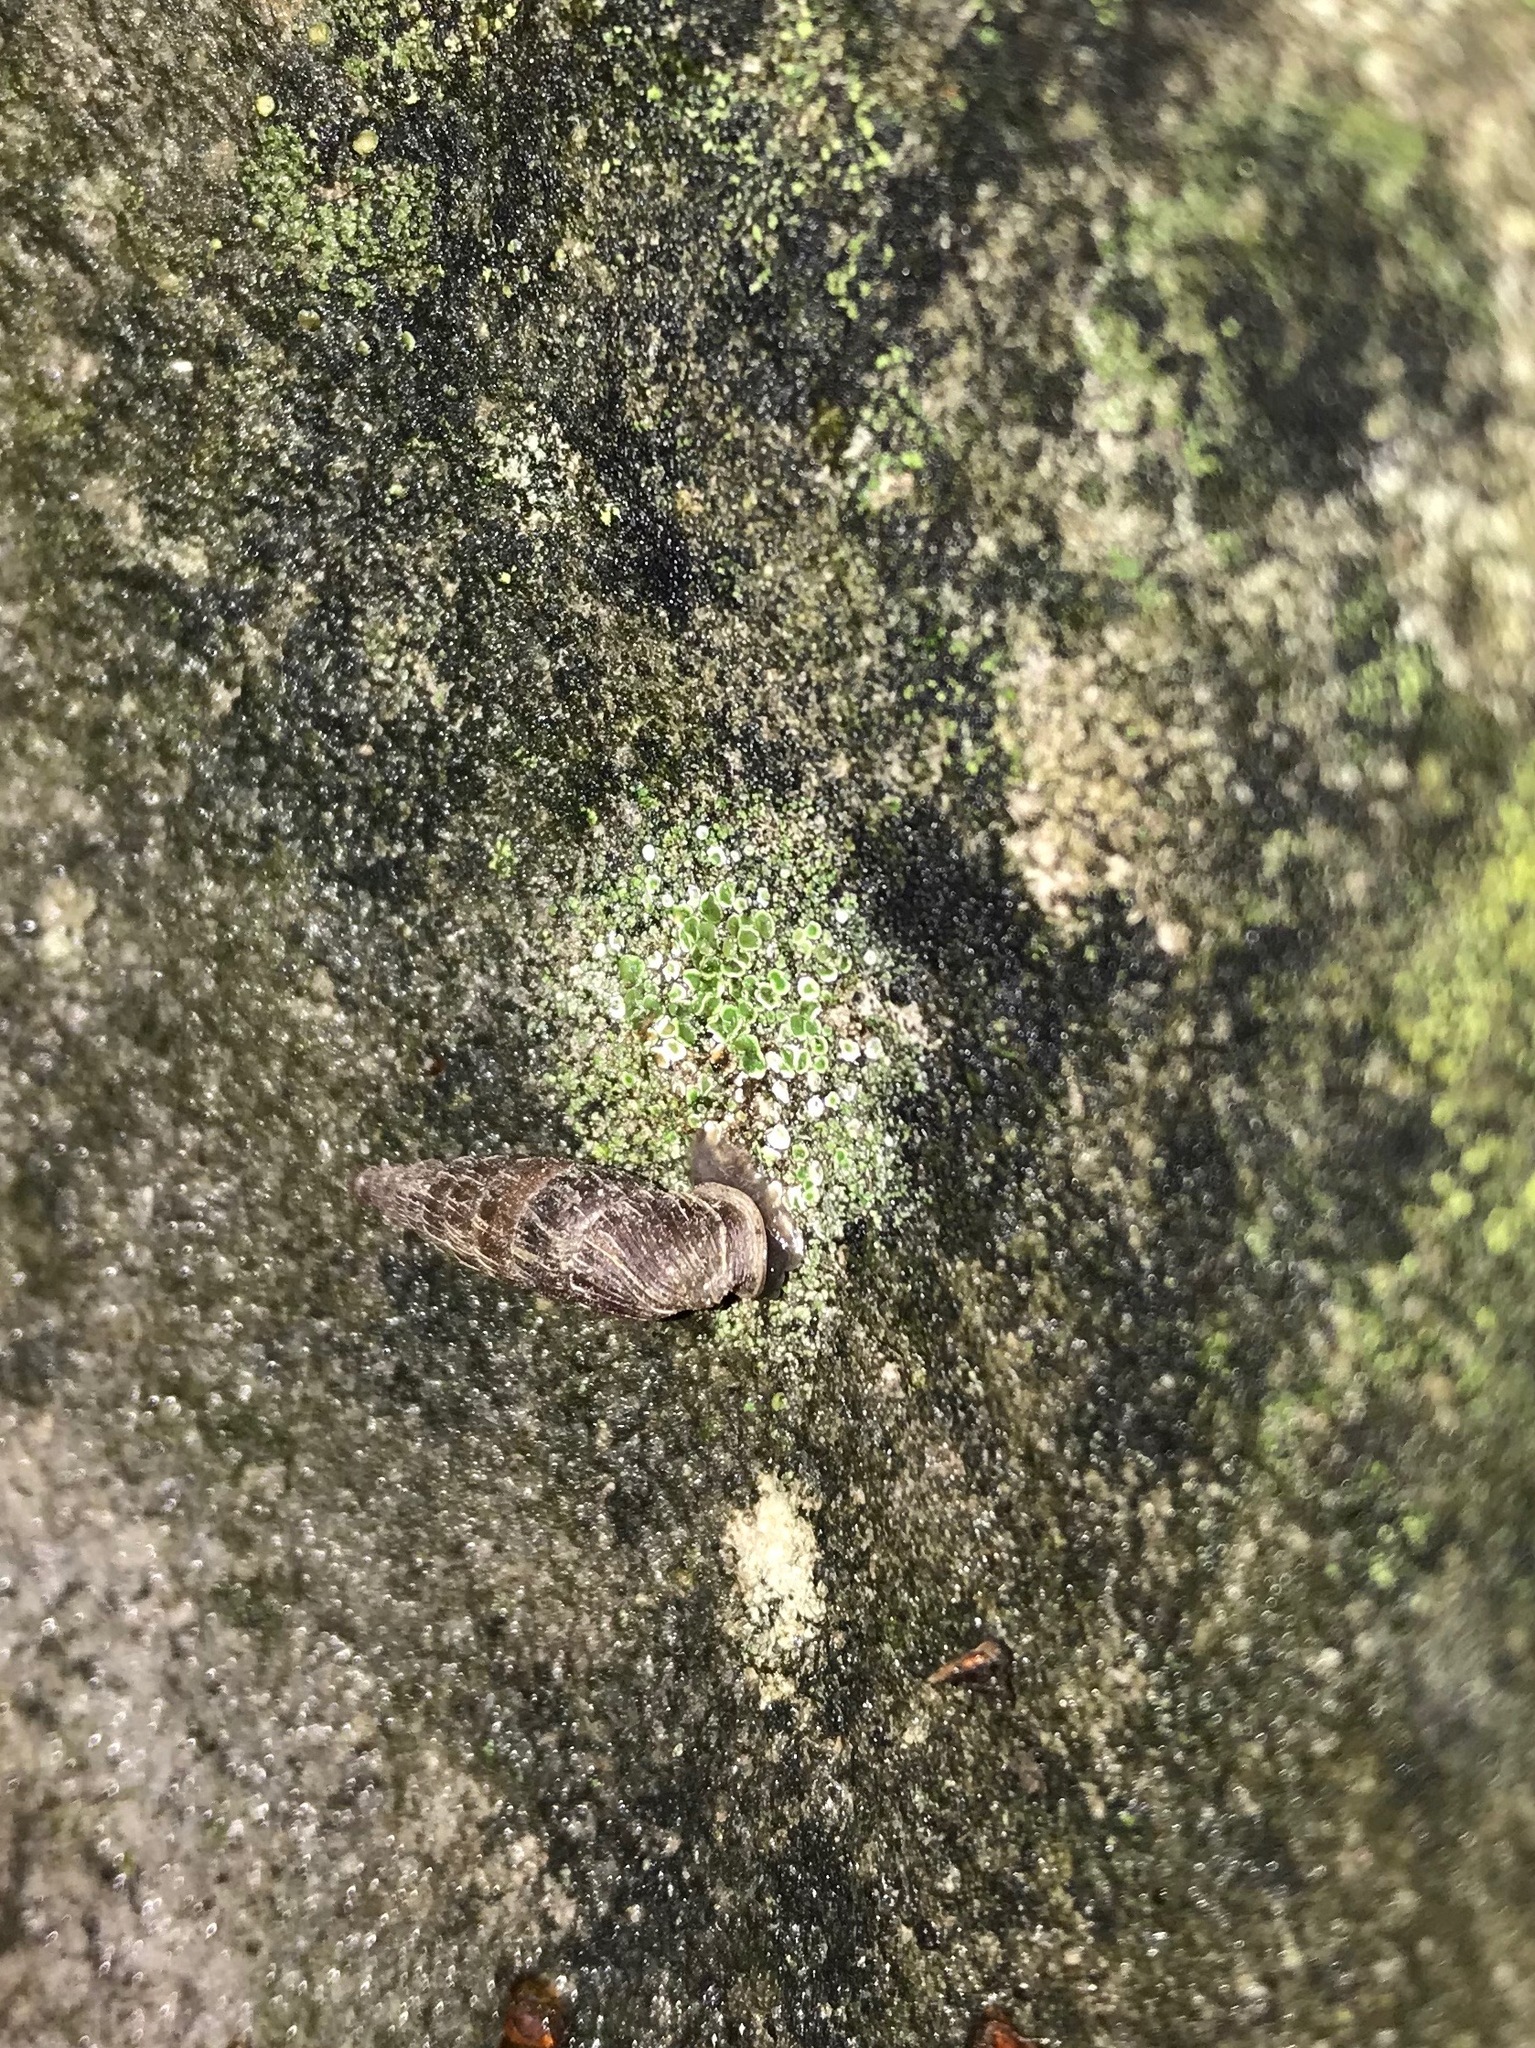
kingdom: Animalia
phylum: Mollusca
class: Gastropoda
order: Stylommatophora
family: Clausiliidae
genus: Alinda
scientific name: Alinda biplicata
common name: Thames door snail
